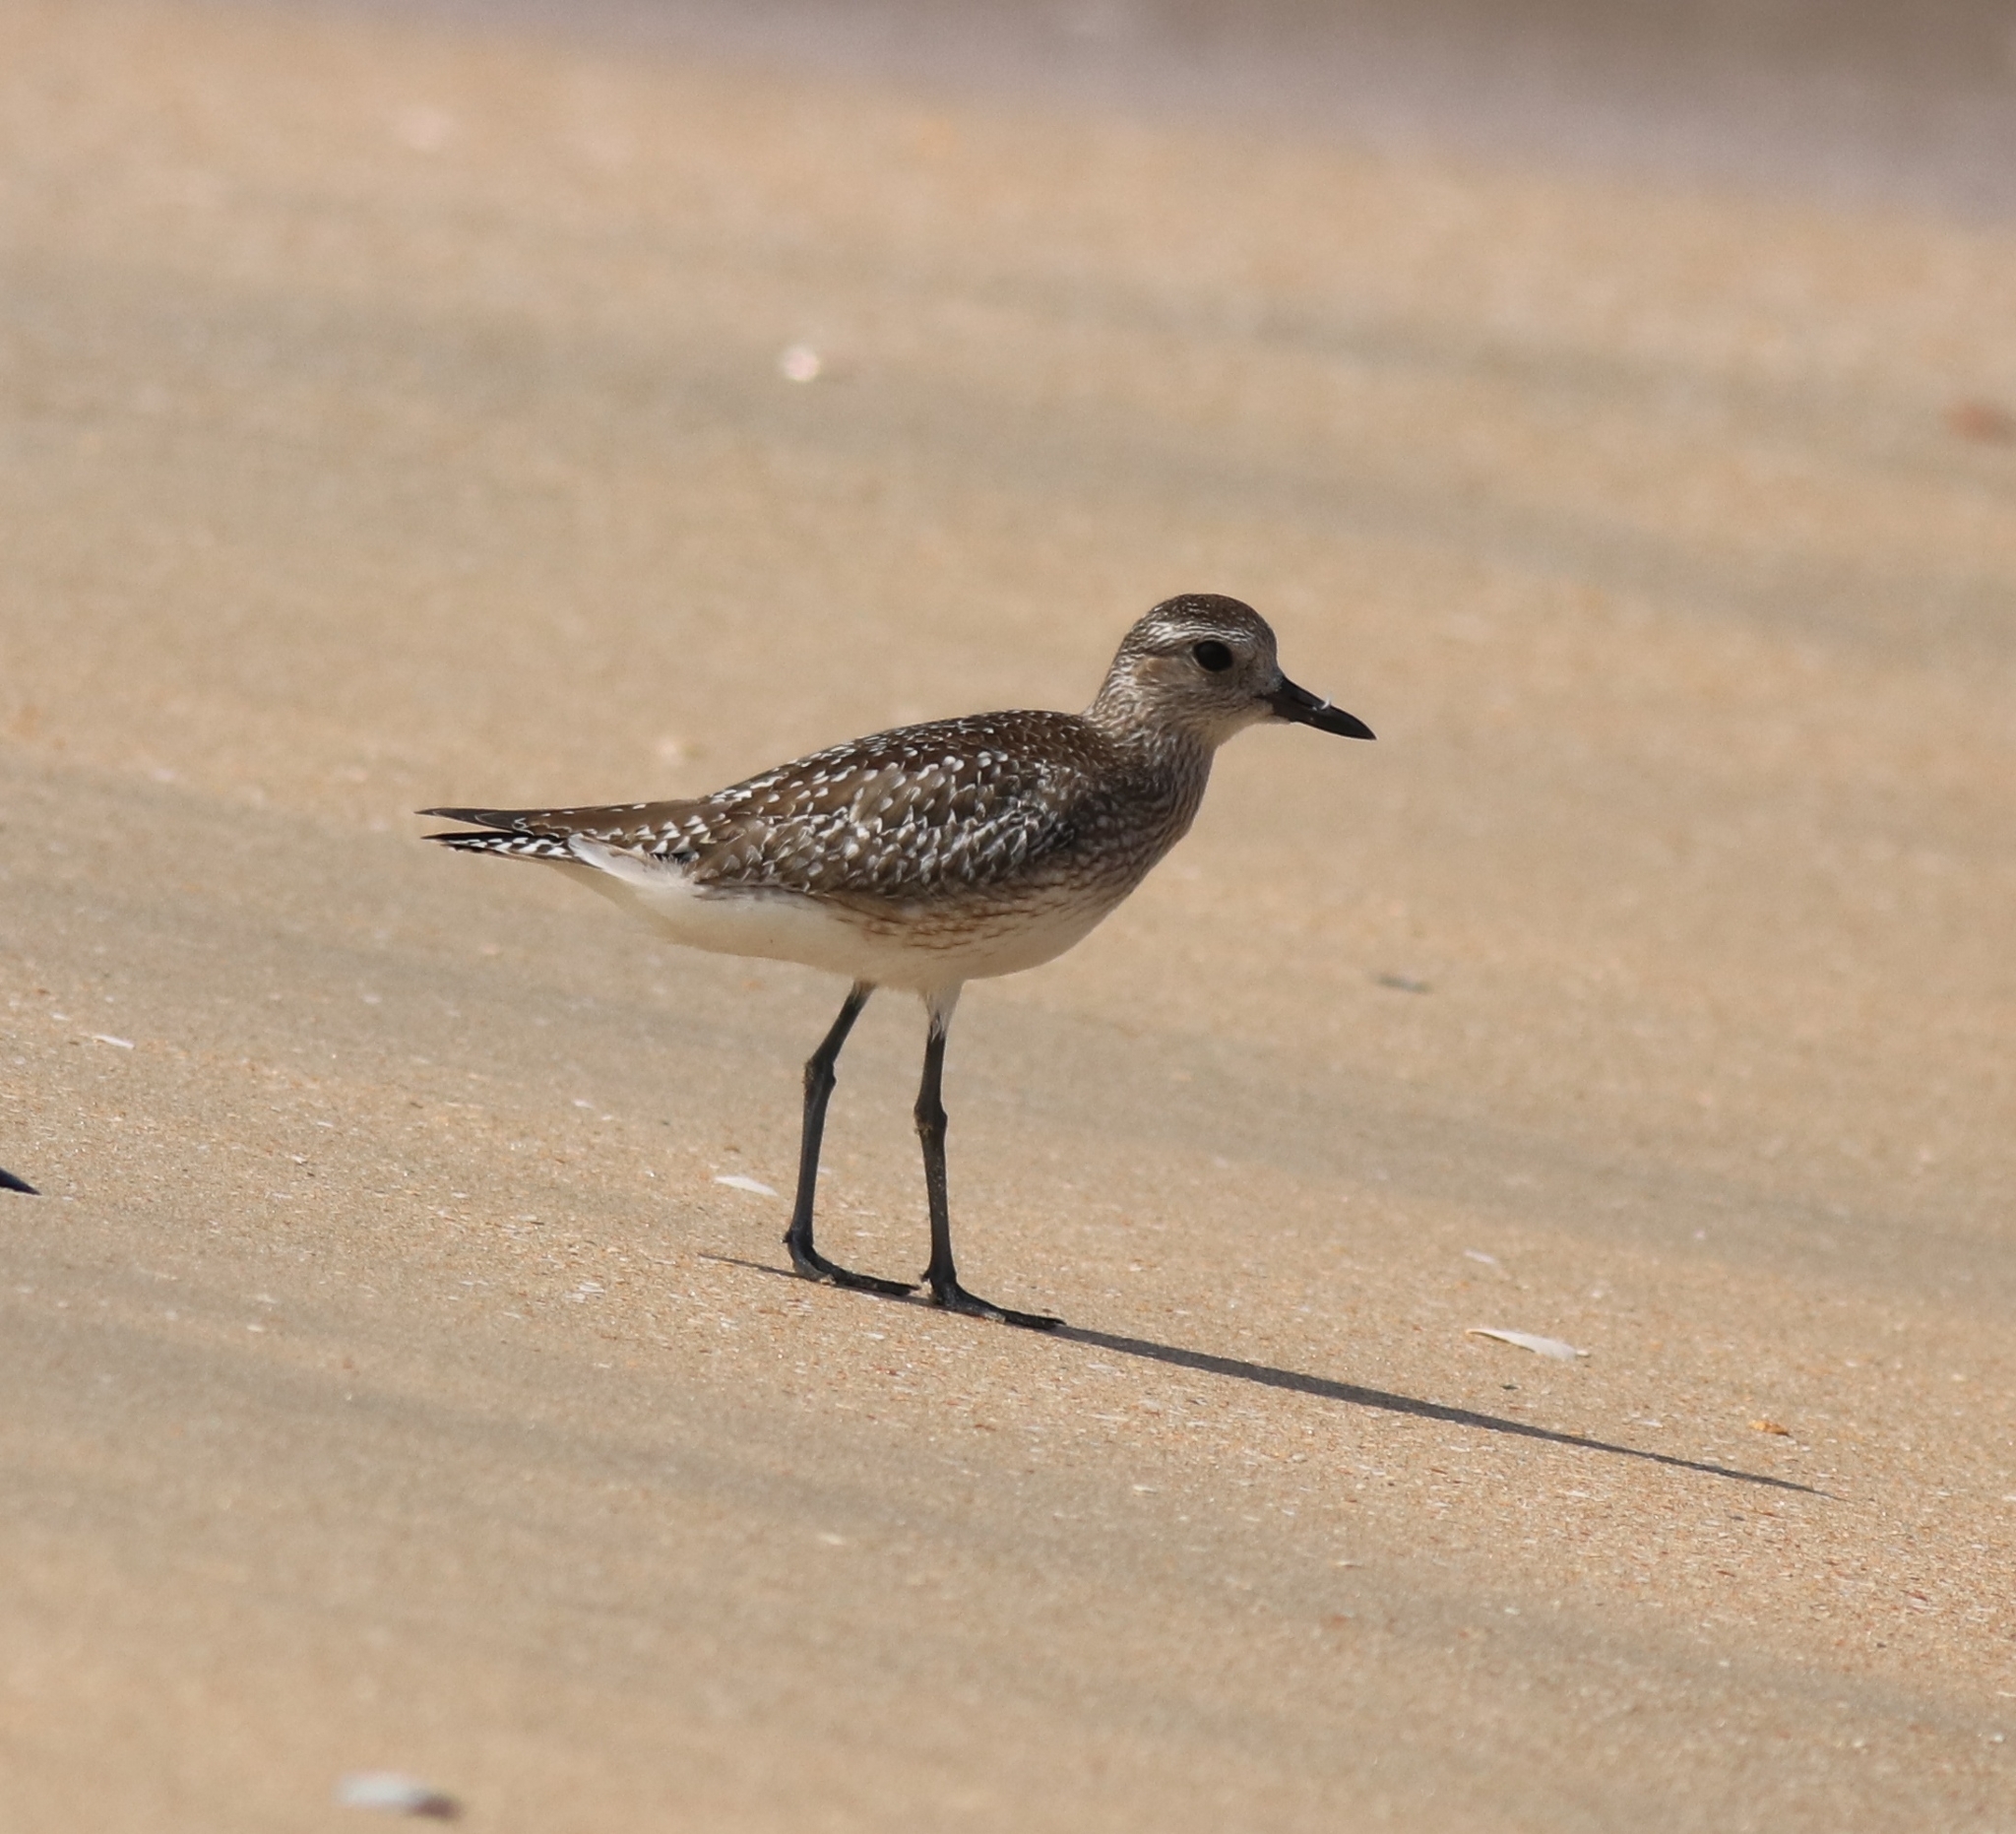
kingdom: Animalia
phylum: Chordata
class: Aves
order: Charadriiformes
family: Charadriidae
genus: Pluvialis
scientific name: Pluvialis squatarola
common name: Grey plover
